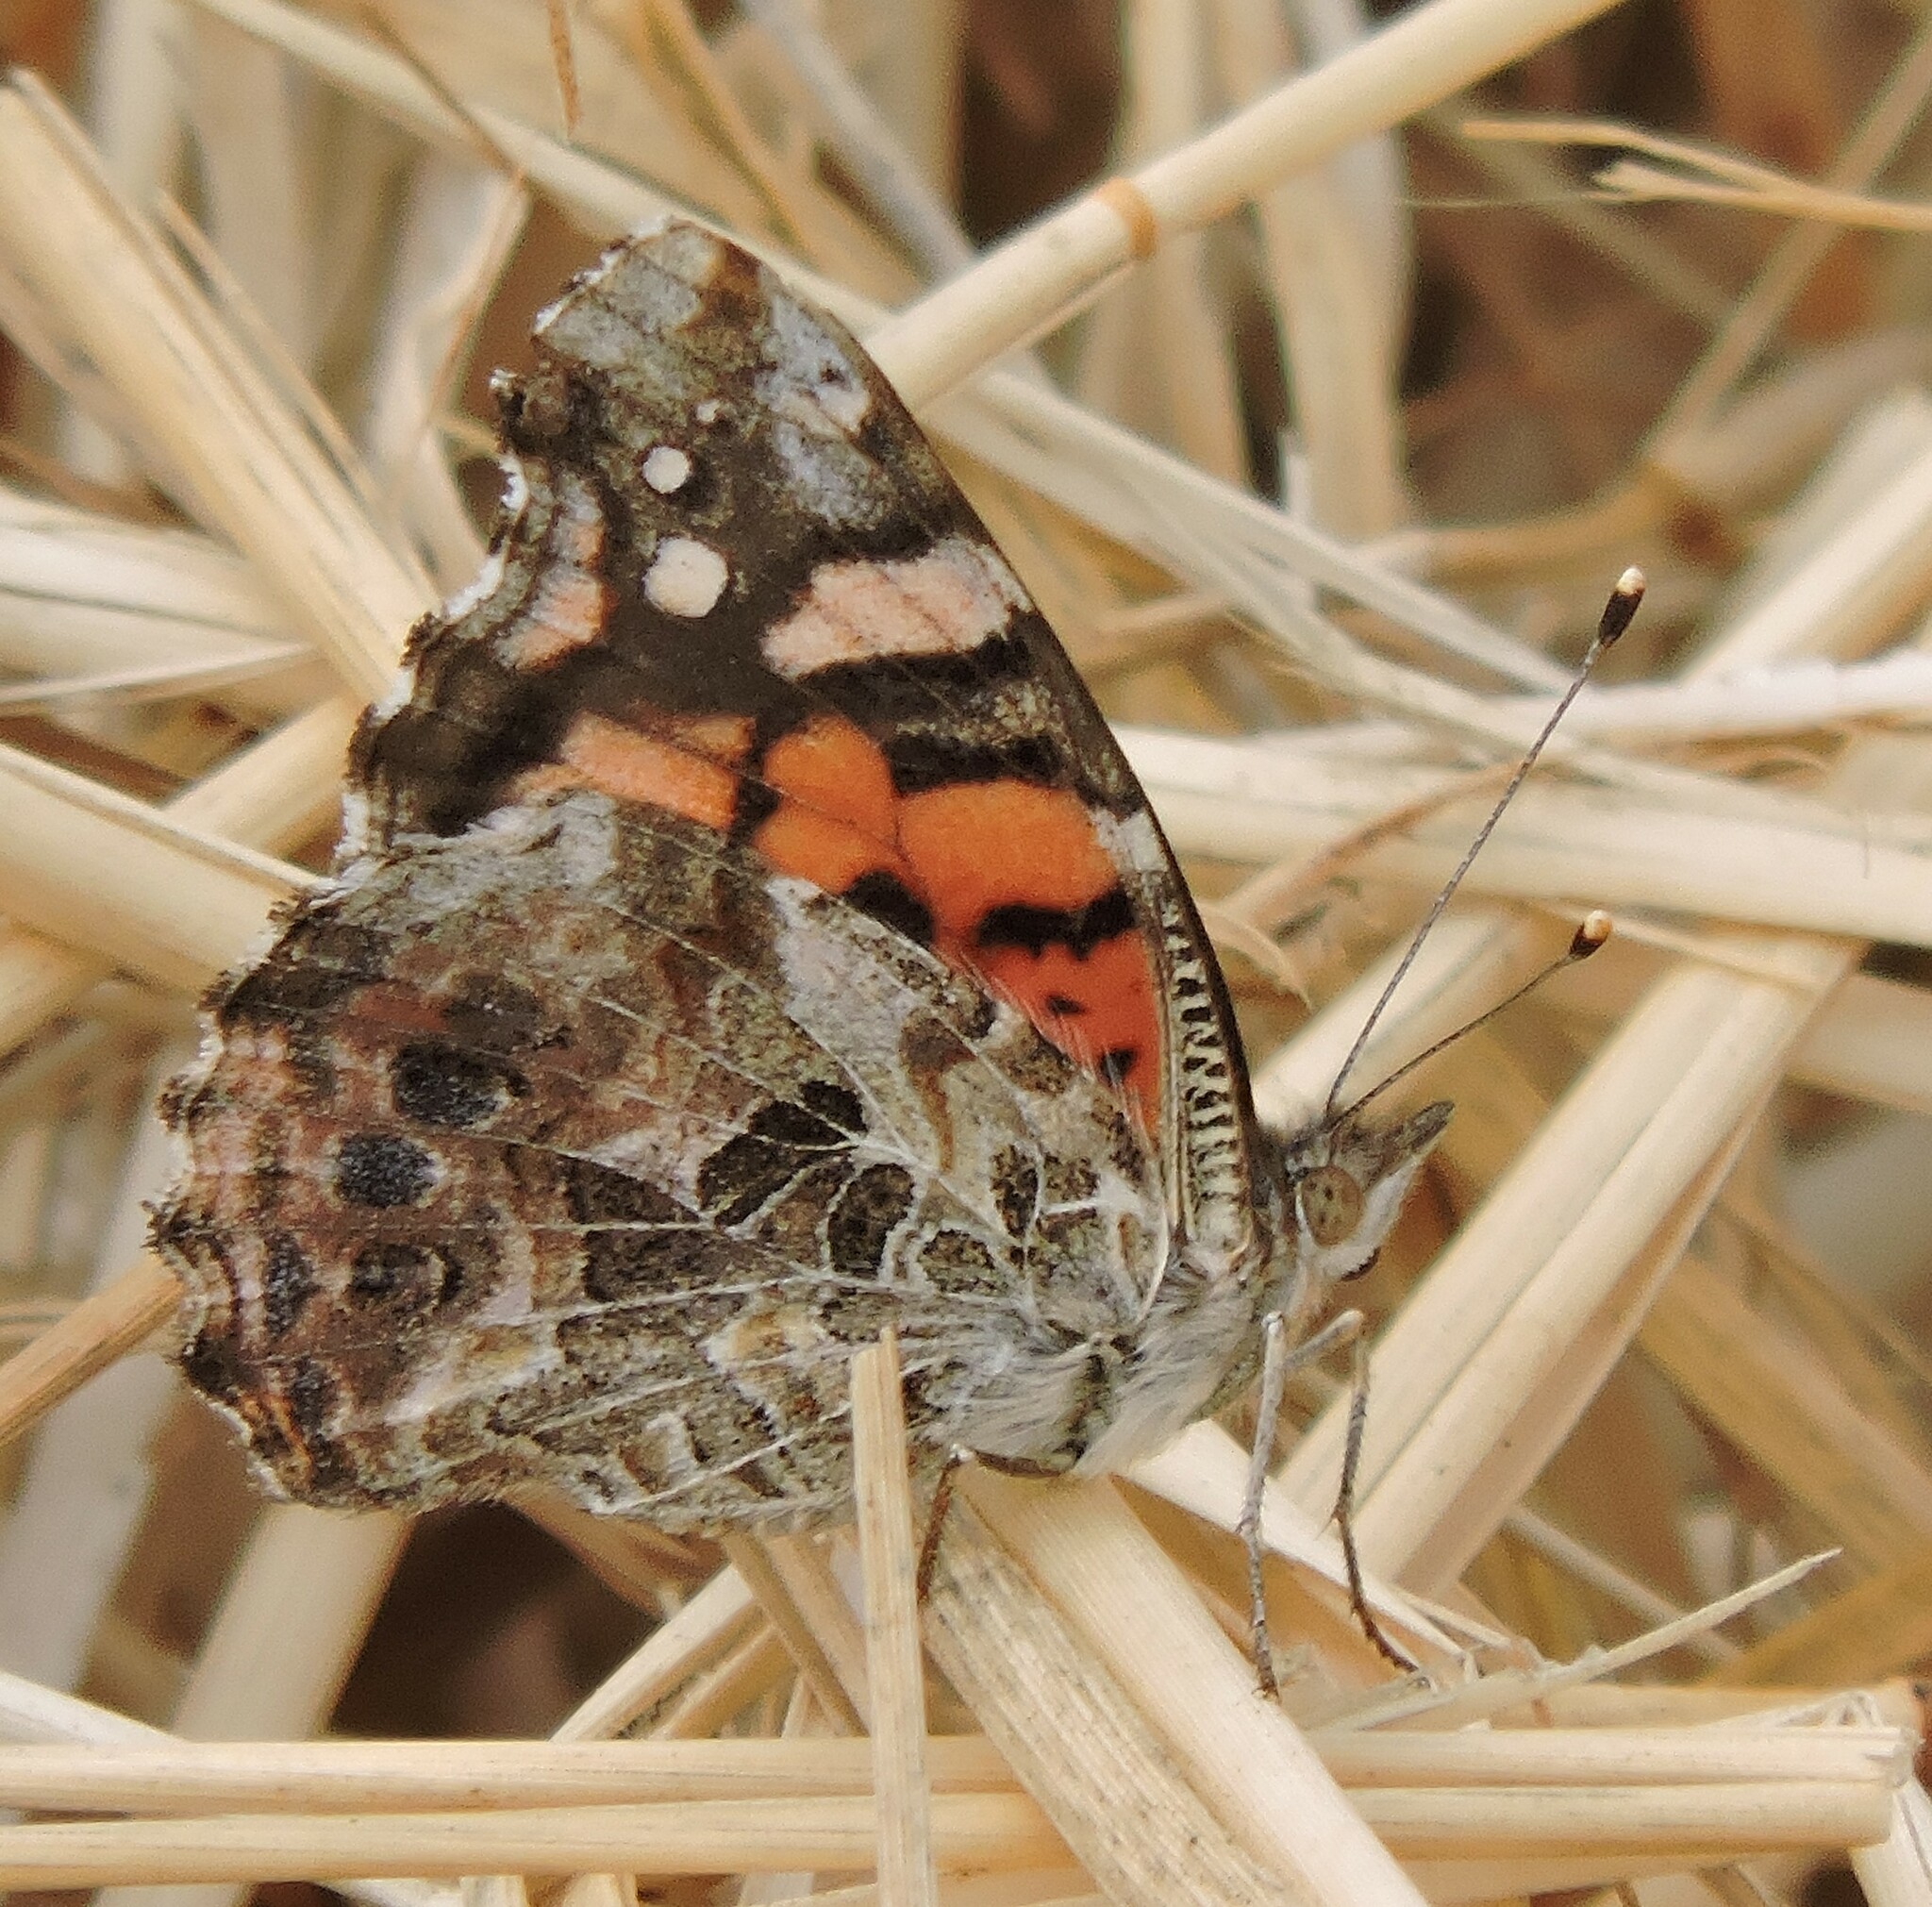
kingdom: Animalia
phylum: Arthropoda
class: Insecta
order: Lepidoptera
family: Nymphalidae
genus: Vanessa
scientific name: Vanessa annabella
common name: West coast lady
